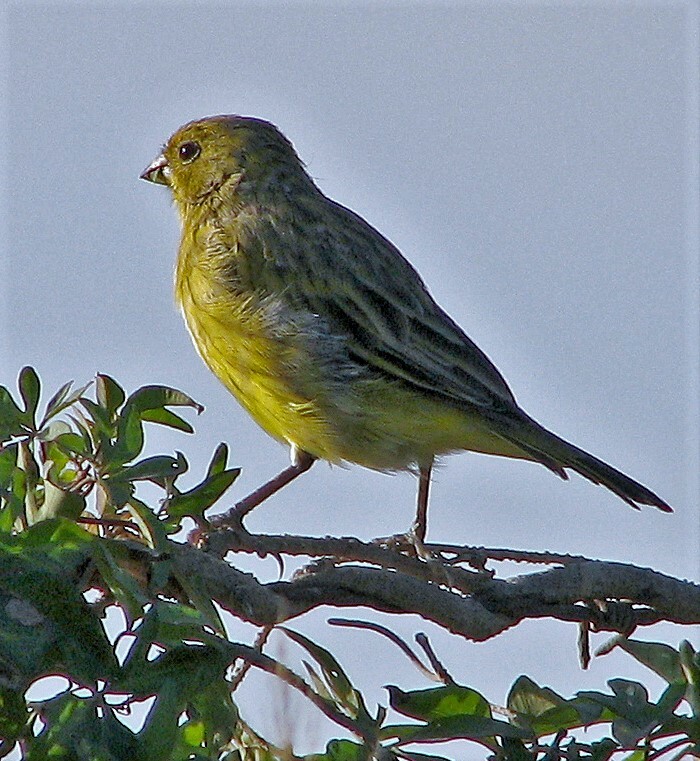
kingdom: Animalia
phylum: Chordata
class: Aves
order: Passeriformes
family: Thraupidae
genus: Sicalis
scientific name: Sicalis flaveola
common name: Saffron finch
